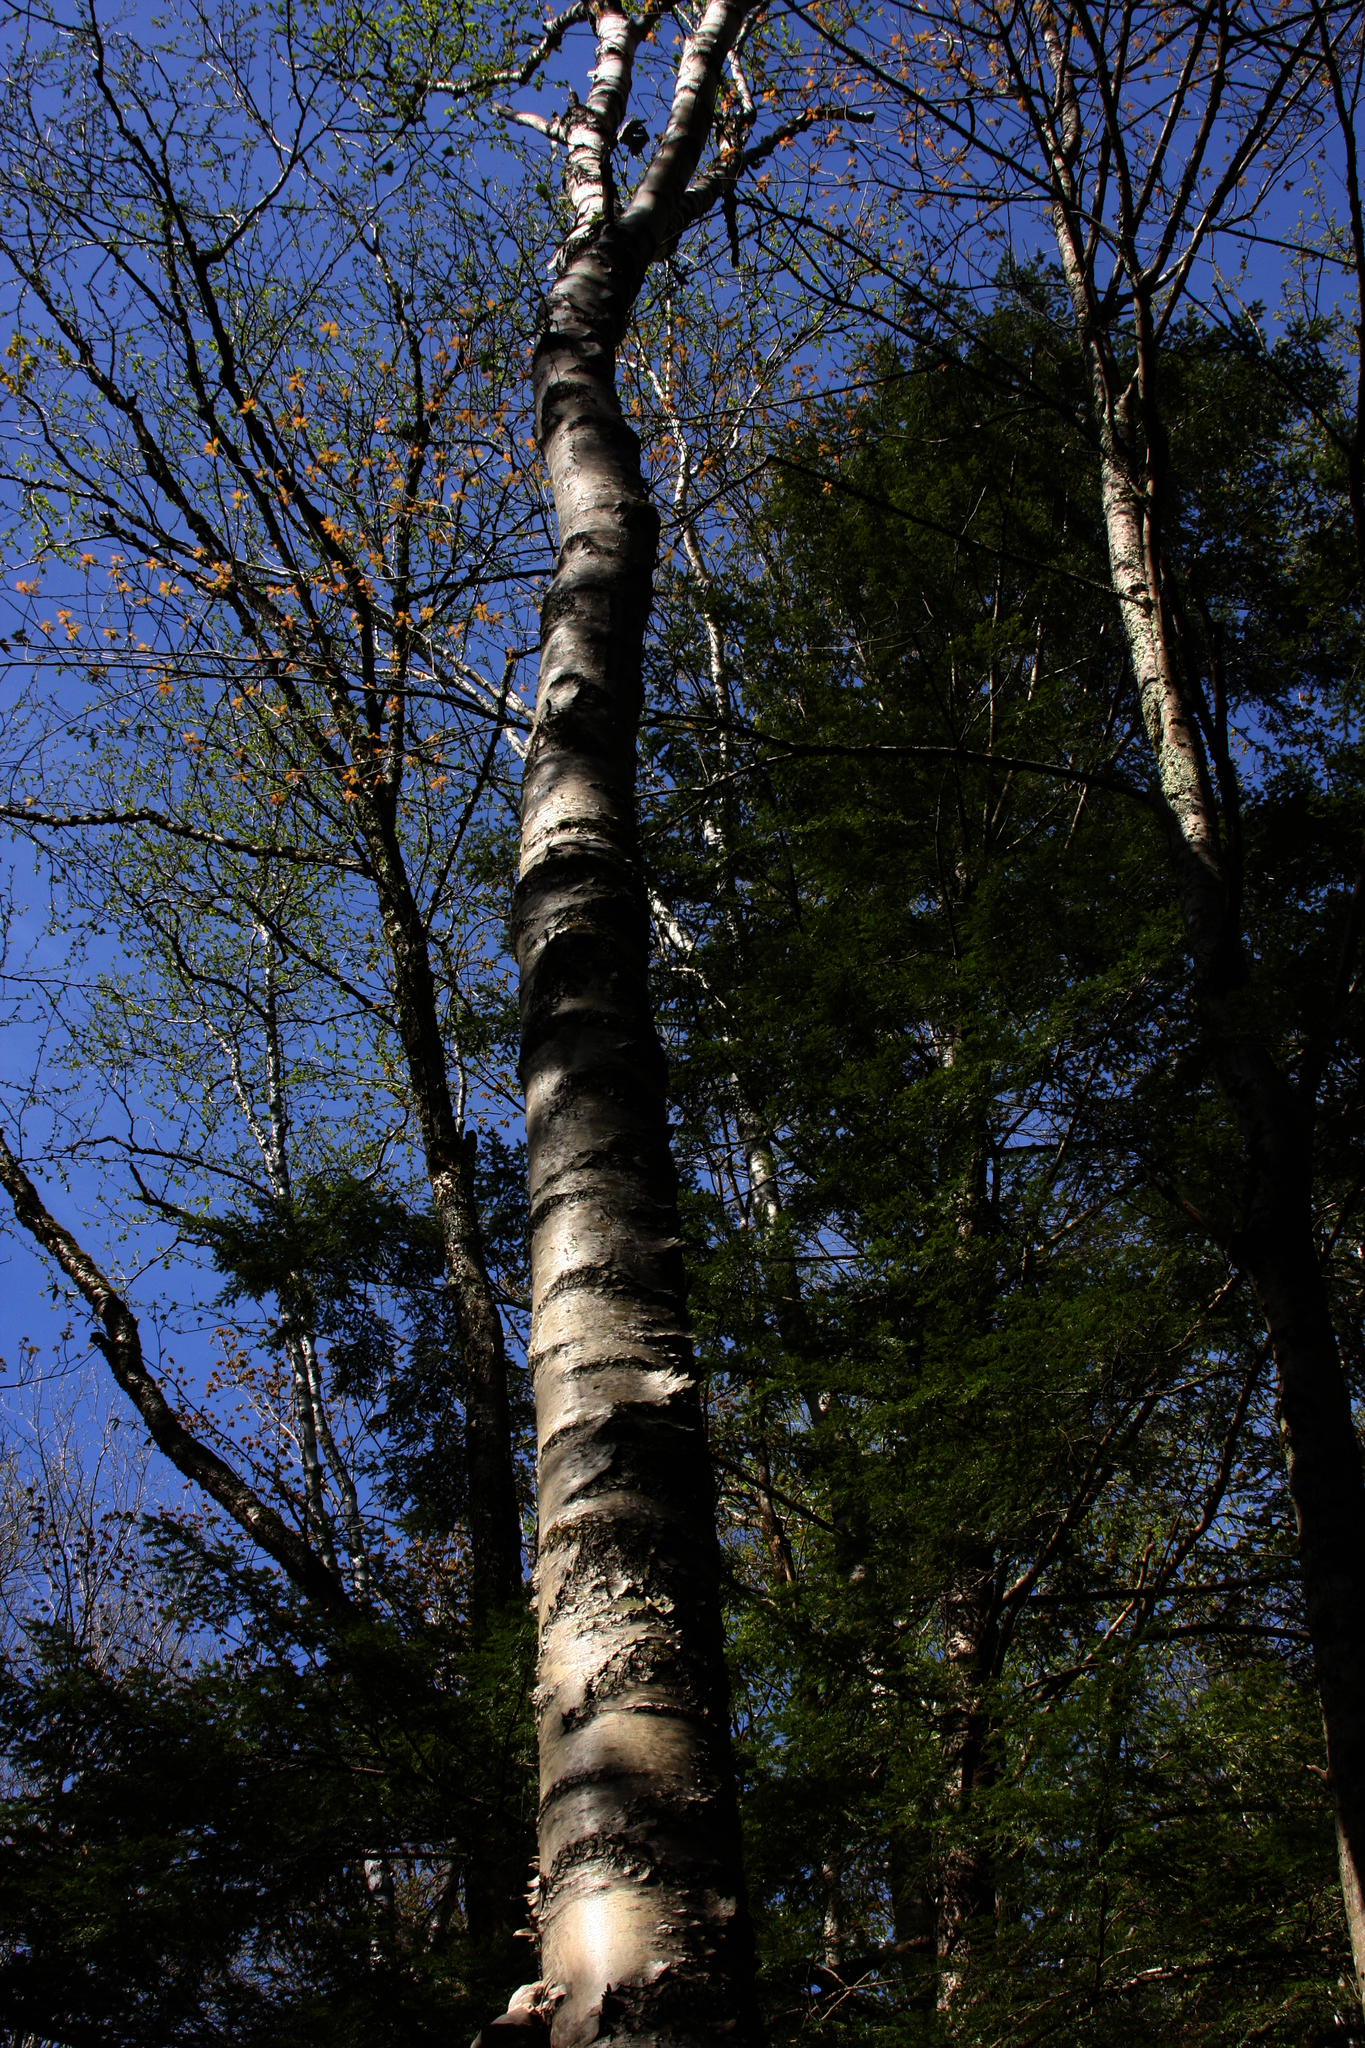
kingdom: Plantae
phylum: Tracheophyta
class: Magnoliopsida
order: Fagales
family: Betulaceae
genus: Betula
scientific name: Betula papyrifera
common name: Paper birch
